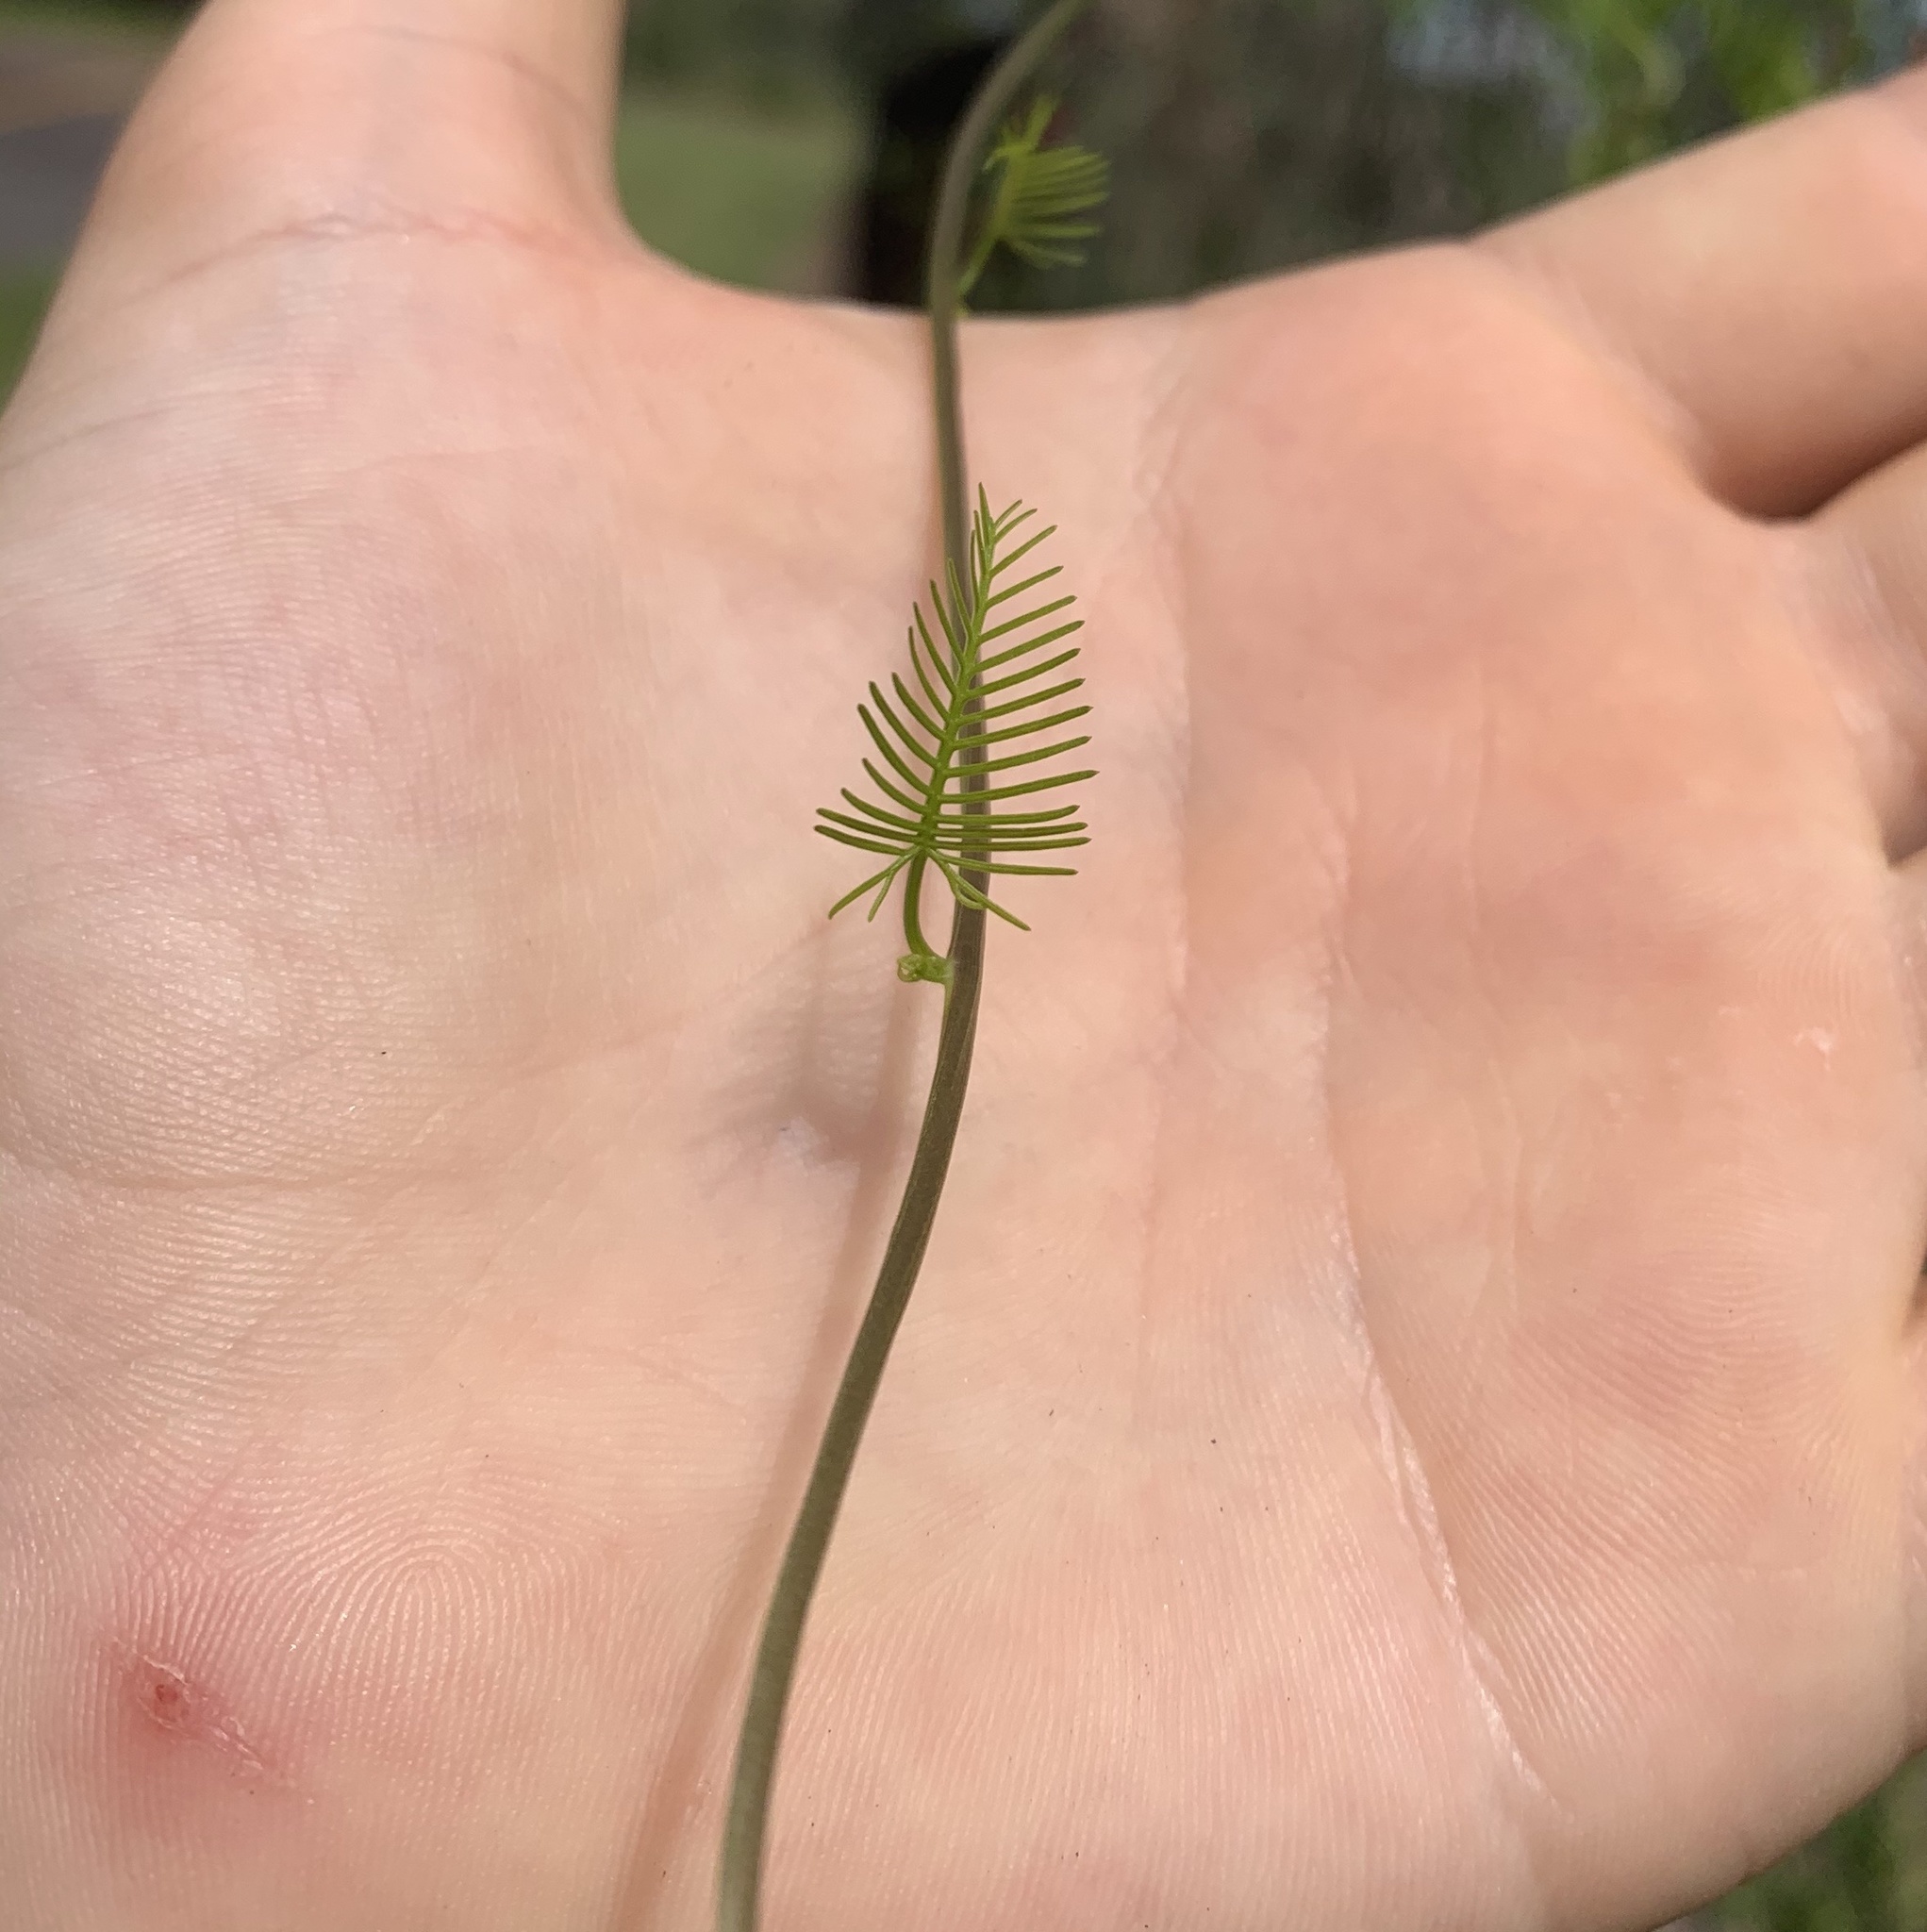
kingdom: Plantae
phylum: Tracheophyta
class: Magnoliopsida
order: Solanales
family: Convolvulaceae
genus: Ipomoea
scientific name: Ipomoea quamoclit
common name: Cypress vine
